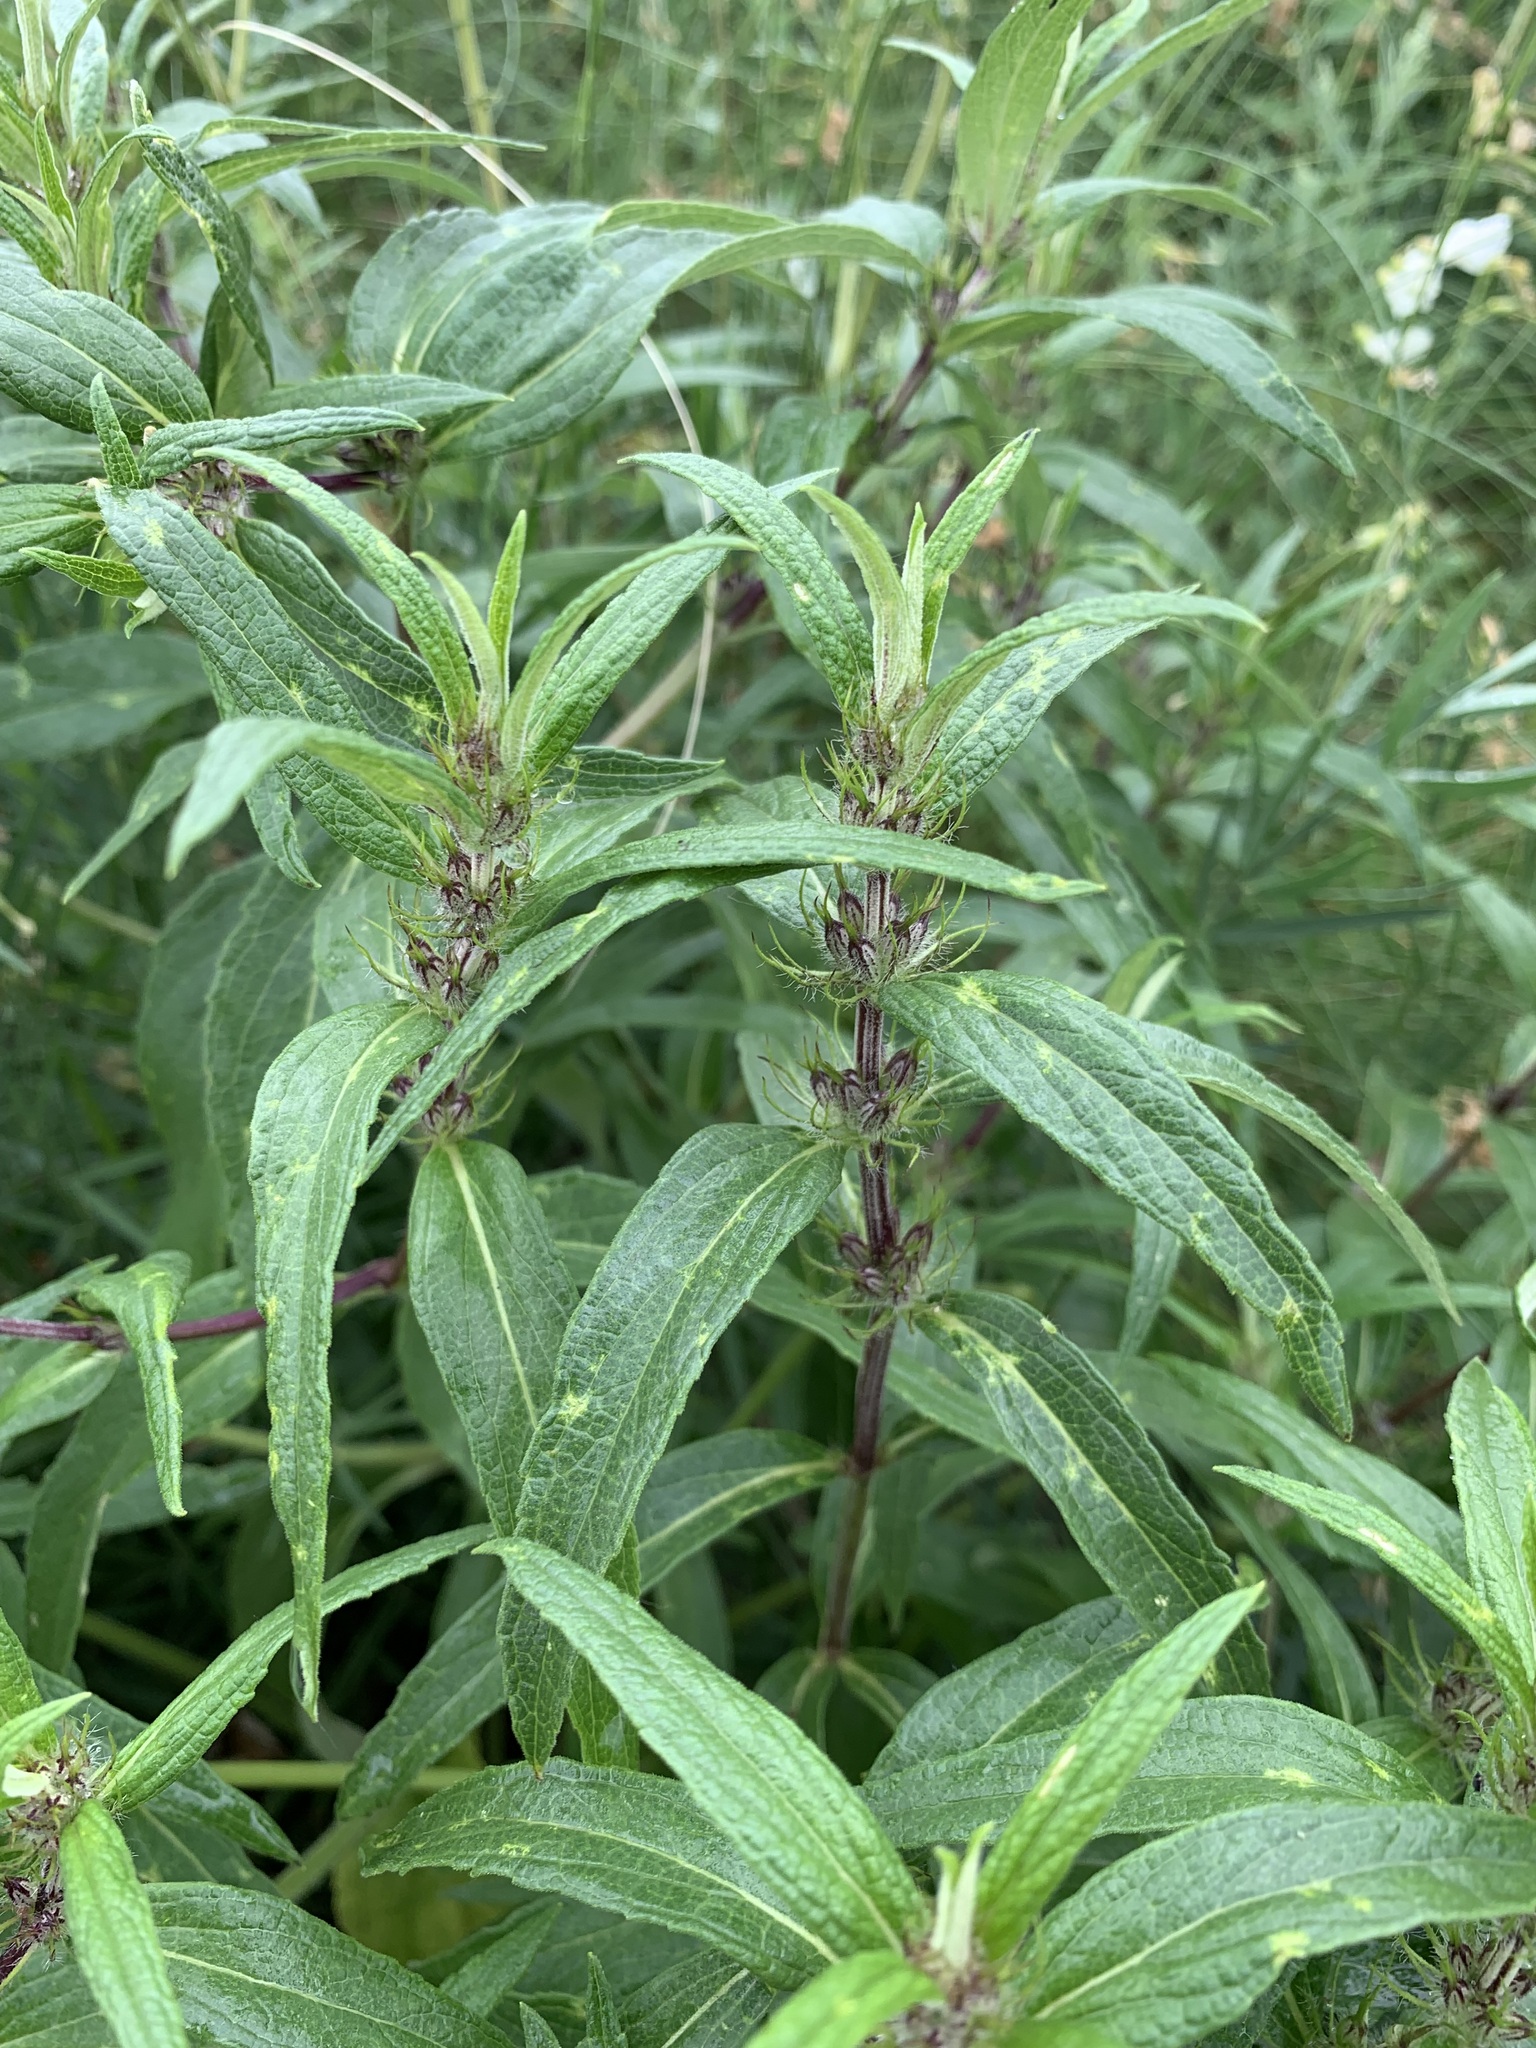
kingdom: Plantae
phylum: Tracheophyta
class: Magnoliopsida
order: Lamiales
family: Lamiaceae
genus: Phlomis
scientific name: Phlomis herba-venti
